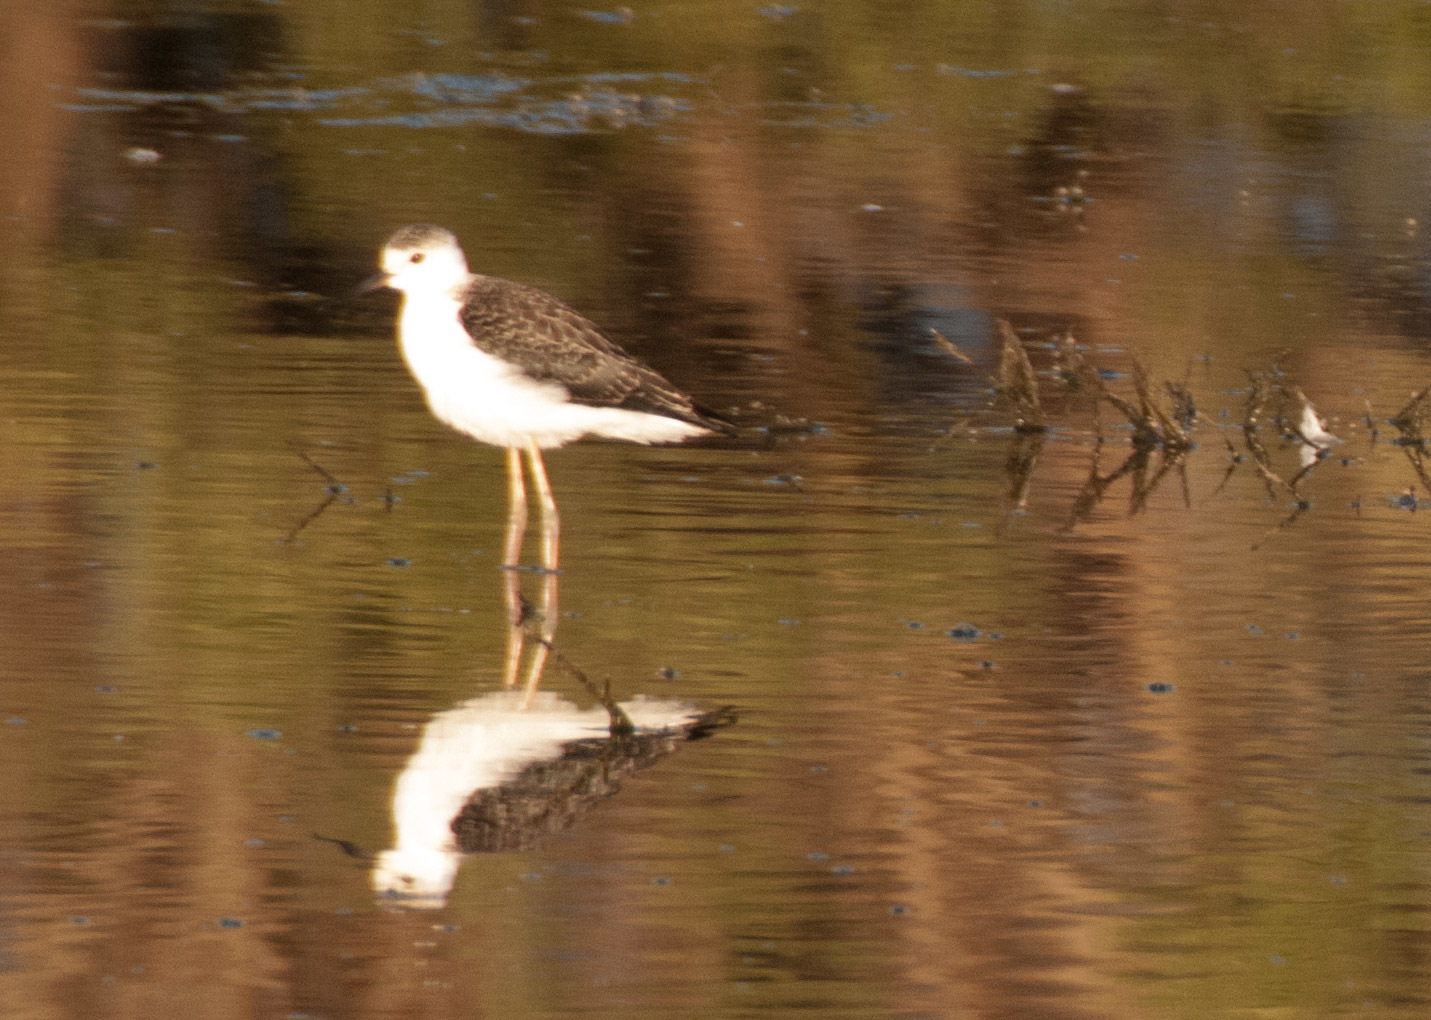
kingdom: Animalia
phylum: Chordata
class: Aves
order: Charadriiformes
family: Recurvirostridae
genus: Himantopus
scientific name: Himantopus leucocephalus
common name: White-headed stilt
